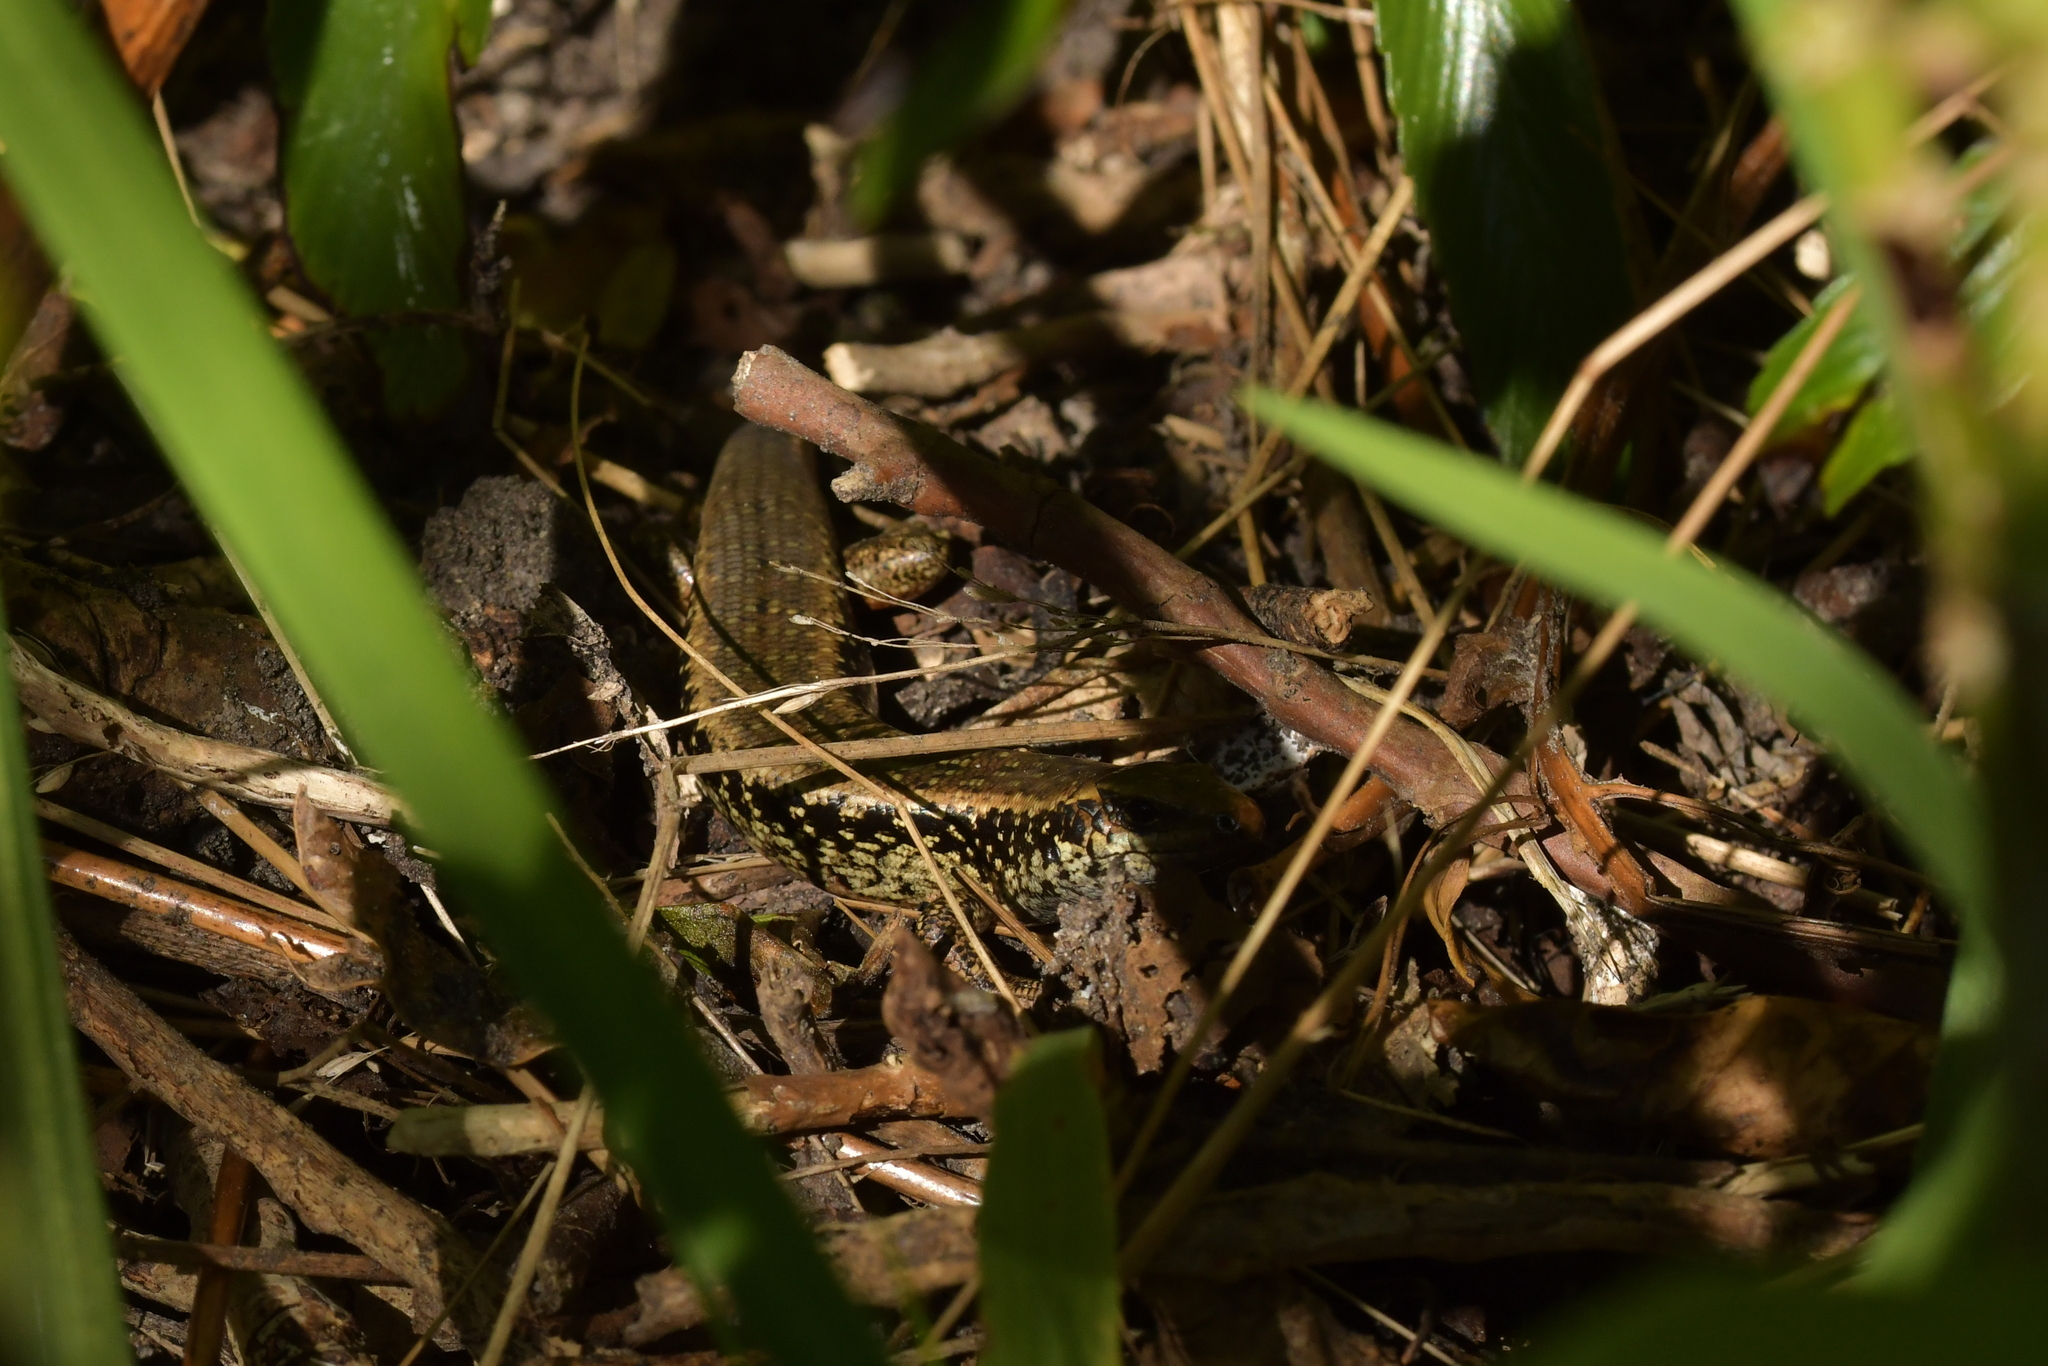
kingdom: Animalia
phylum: Chordata
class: Squamata
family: Scincidae
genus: Oligosoma
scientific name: Oligosoma kokowai
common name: Northern spotted skink
